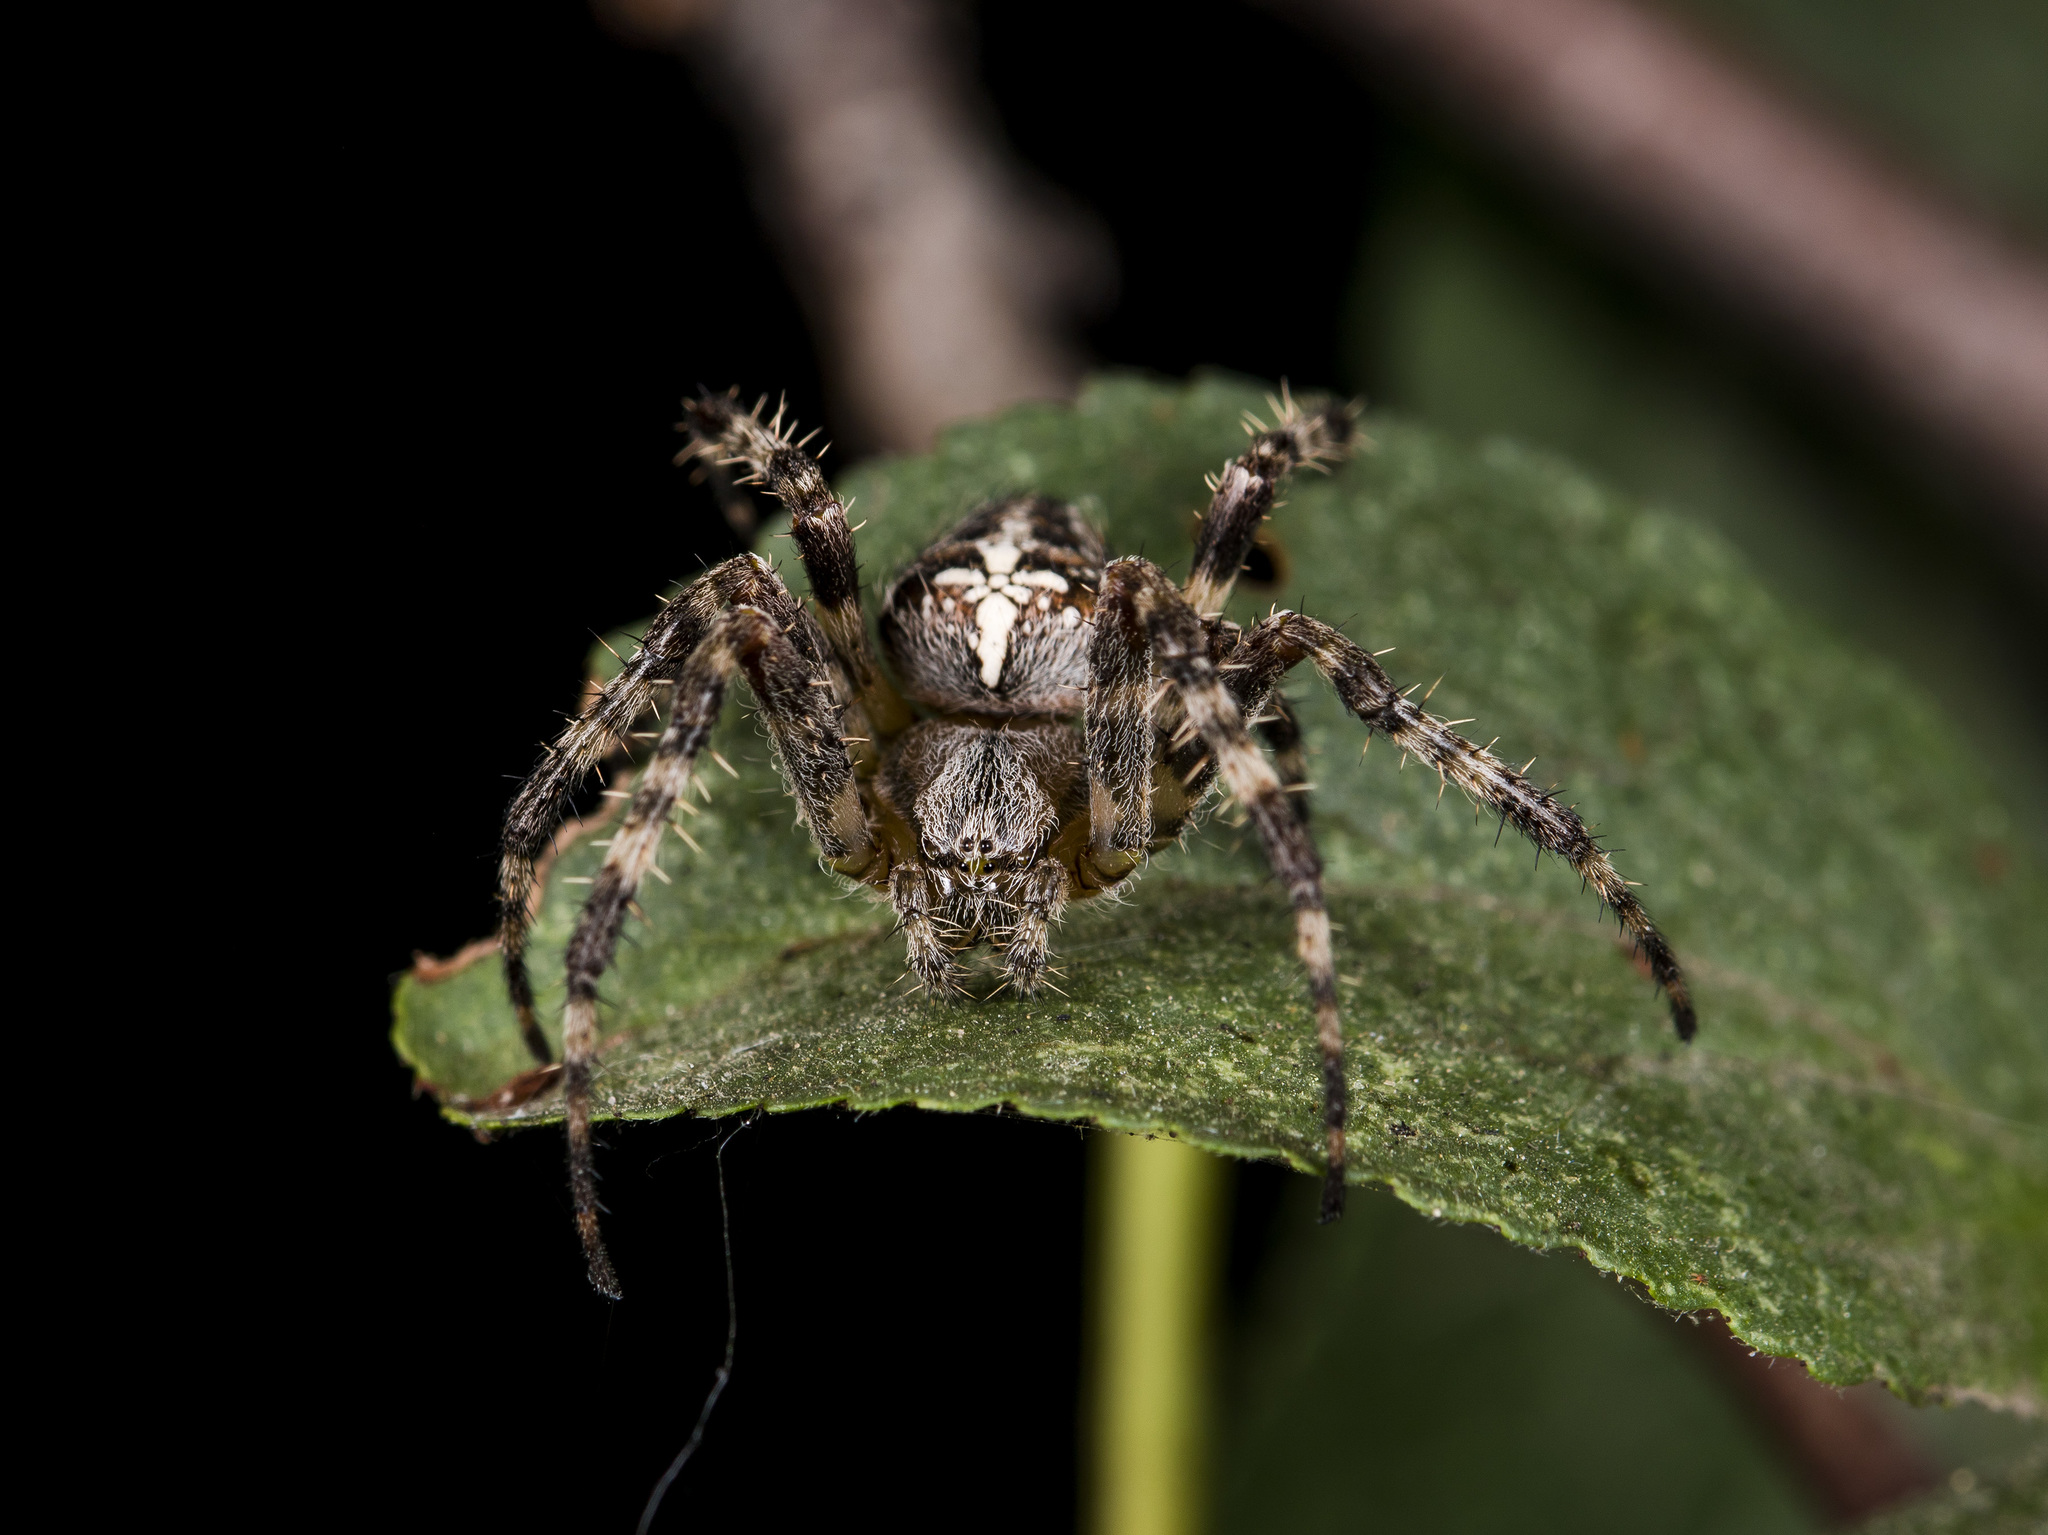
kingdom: Animalia
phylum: Arthropoda
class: Arachnida
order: Araneae
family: Araneidae
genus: Araneus
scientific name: Araneus diadematus
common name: Cross orbweaver
